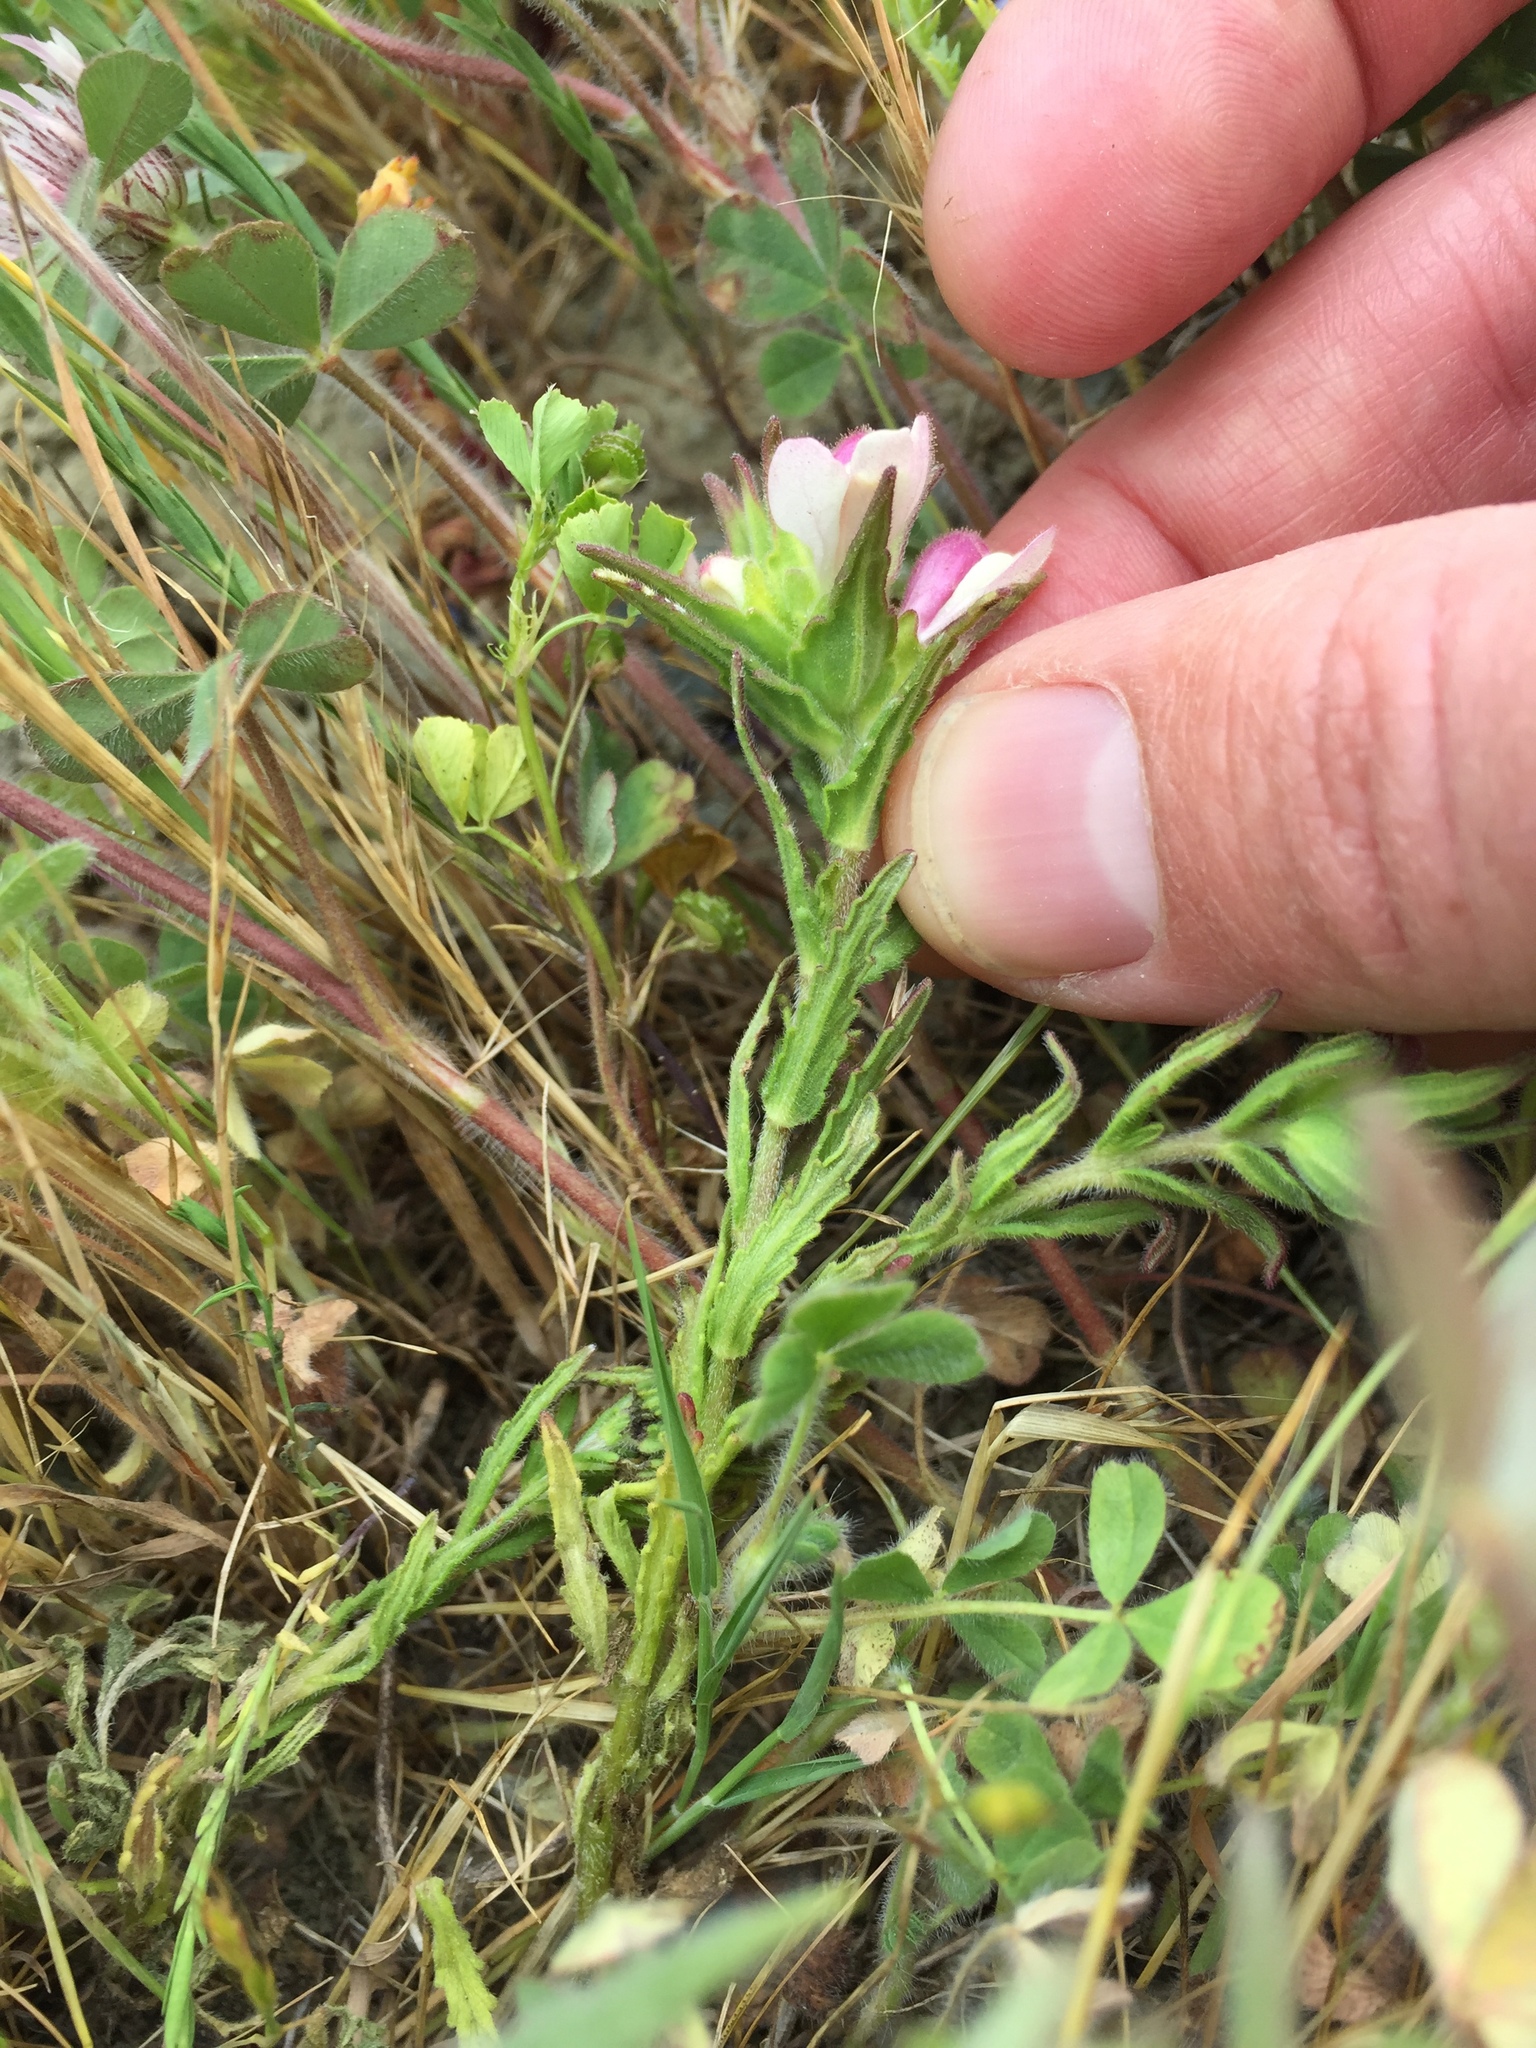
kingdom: Plantae
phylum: Tracheophyta
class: Magnoliopsida
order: Lamiales
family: Orobanchaceae
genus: Bellardia
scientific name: Bellardia trixago
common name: Mediterranean lineseed
